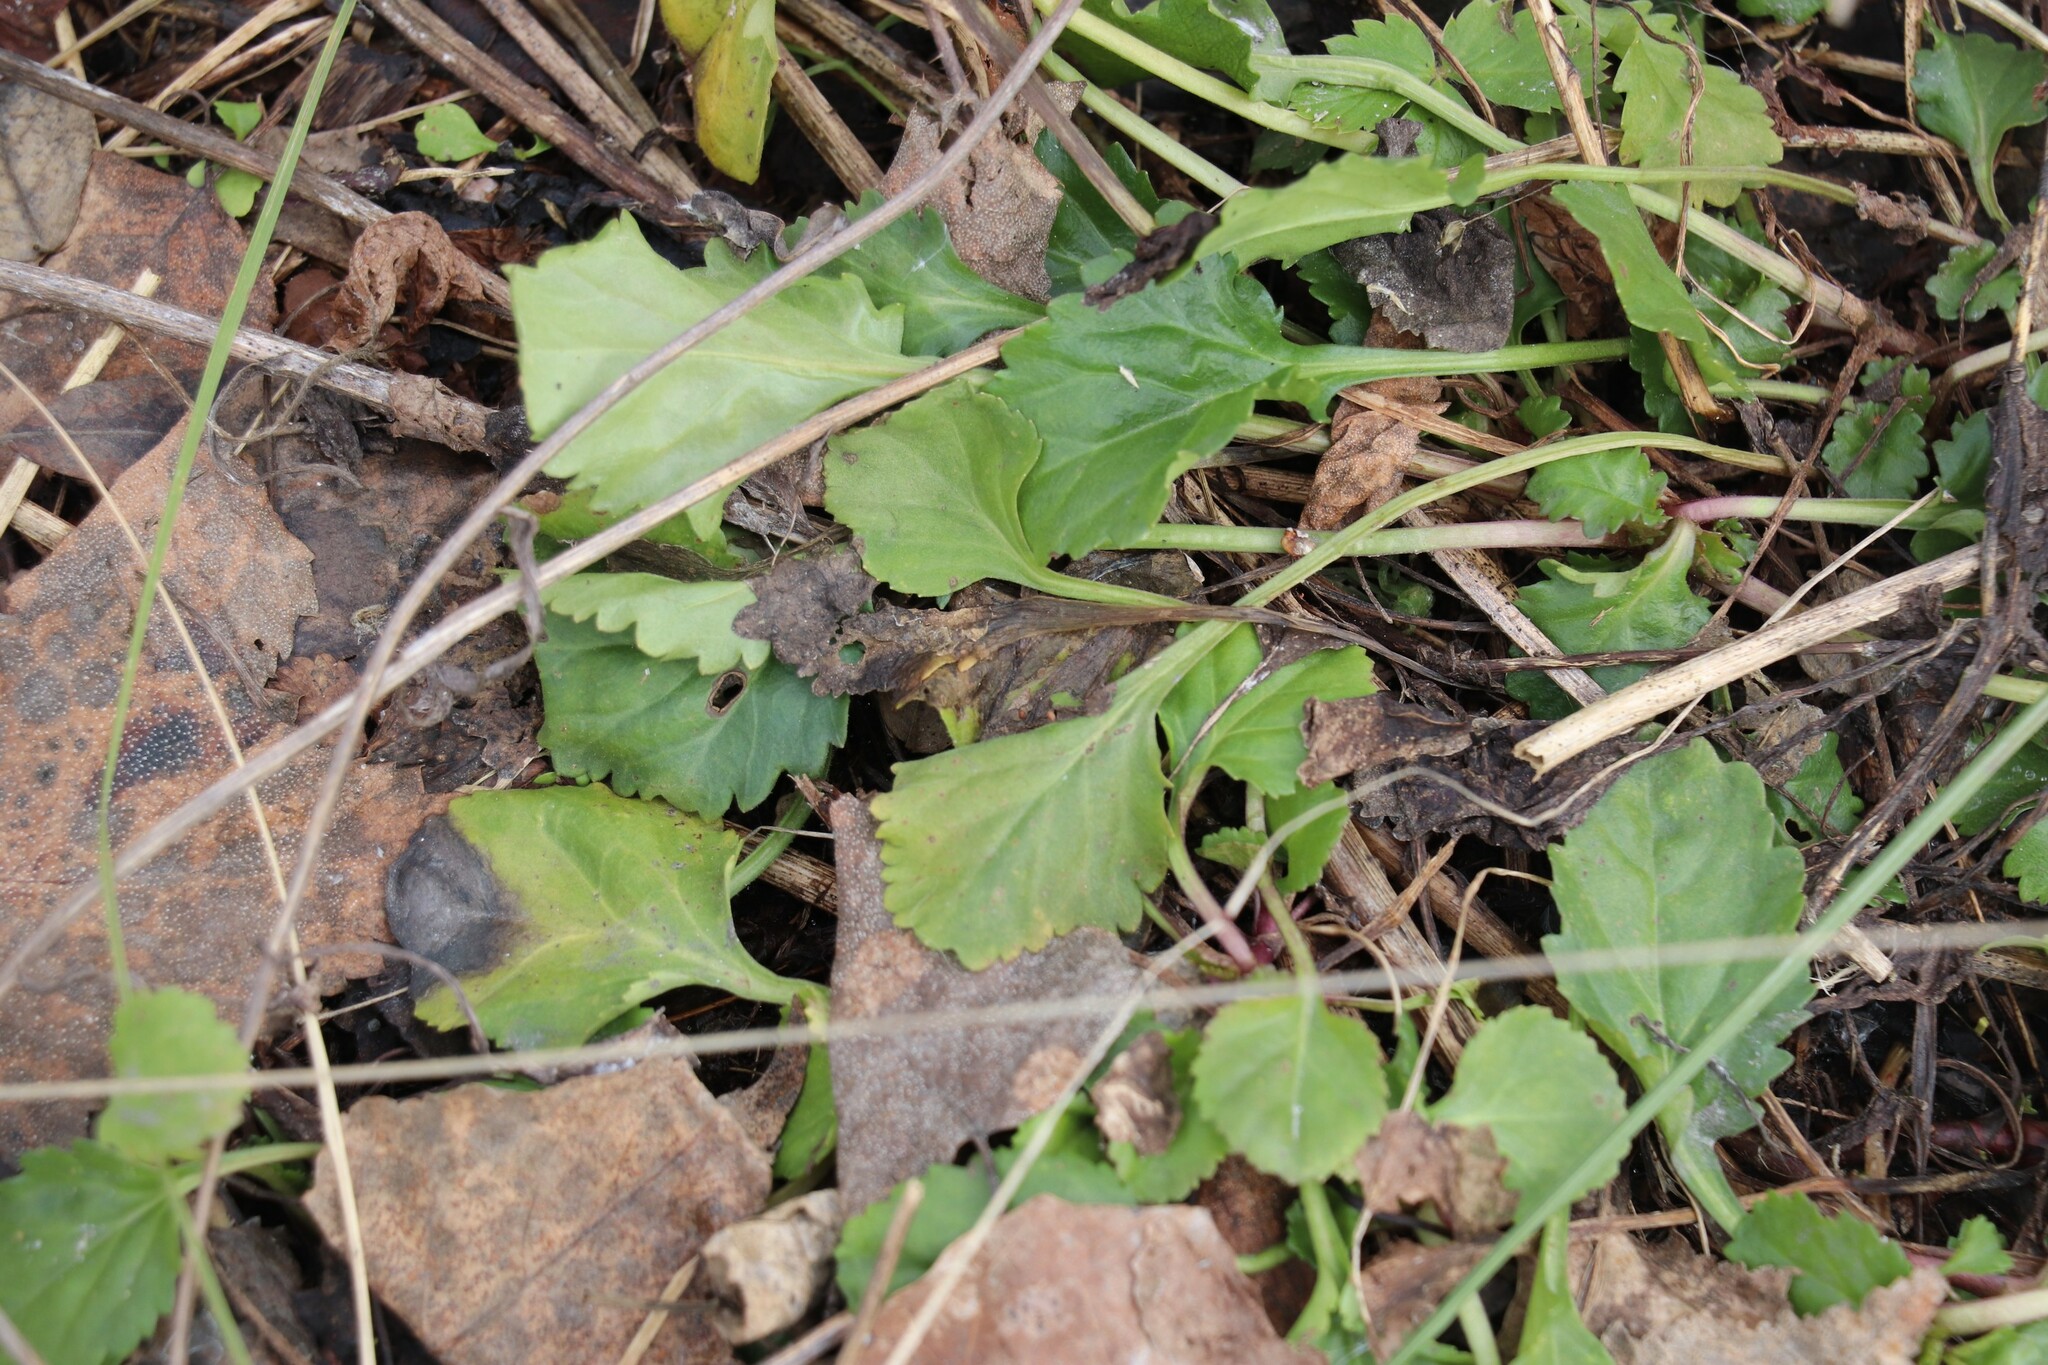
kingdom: Plantae
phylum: Tracheophyta
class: Magnoliopsida
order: Asterales
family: Asteraceae
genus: Leucanthemum
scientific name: Leucanthemum ircutianum
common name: Daisy
